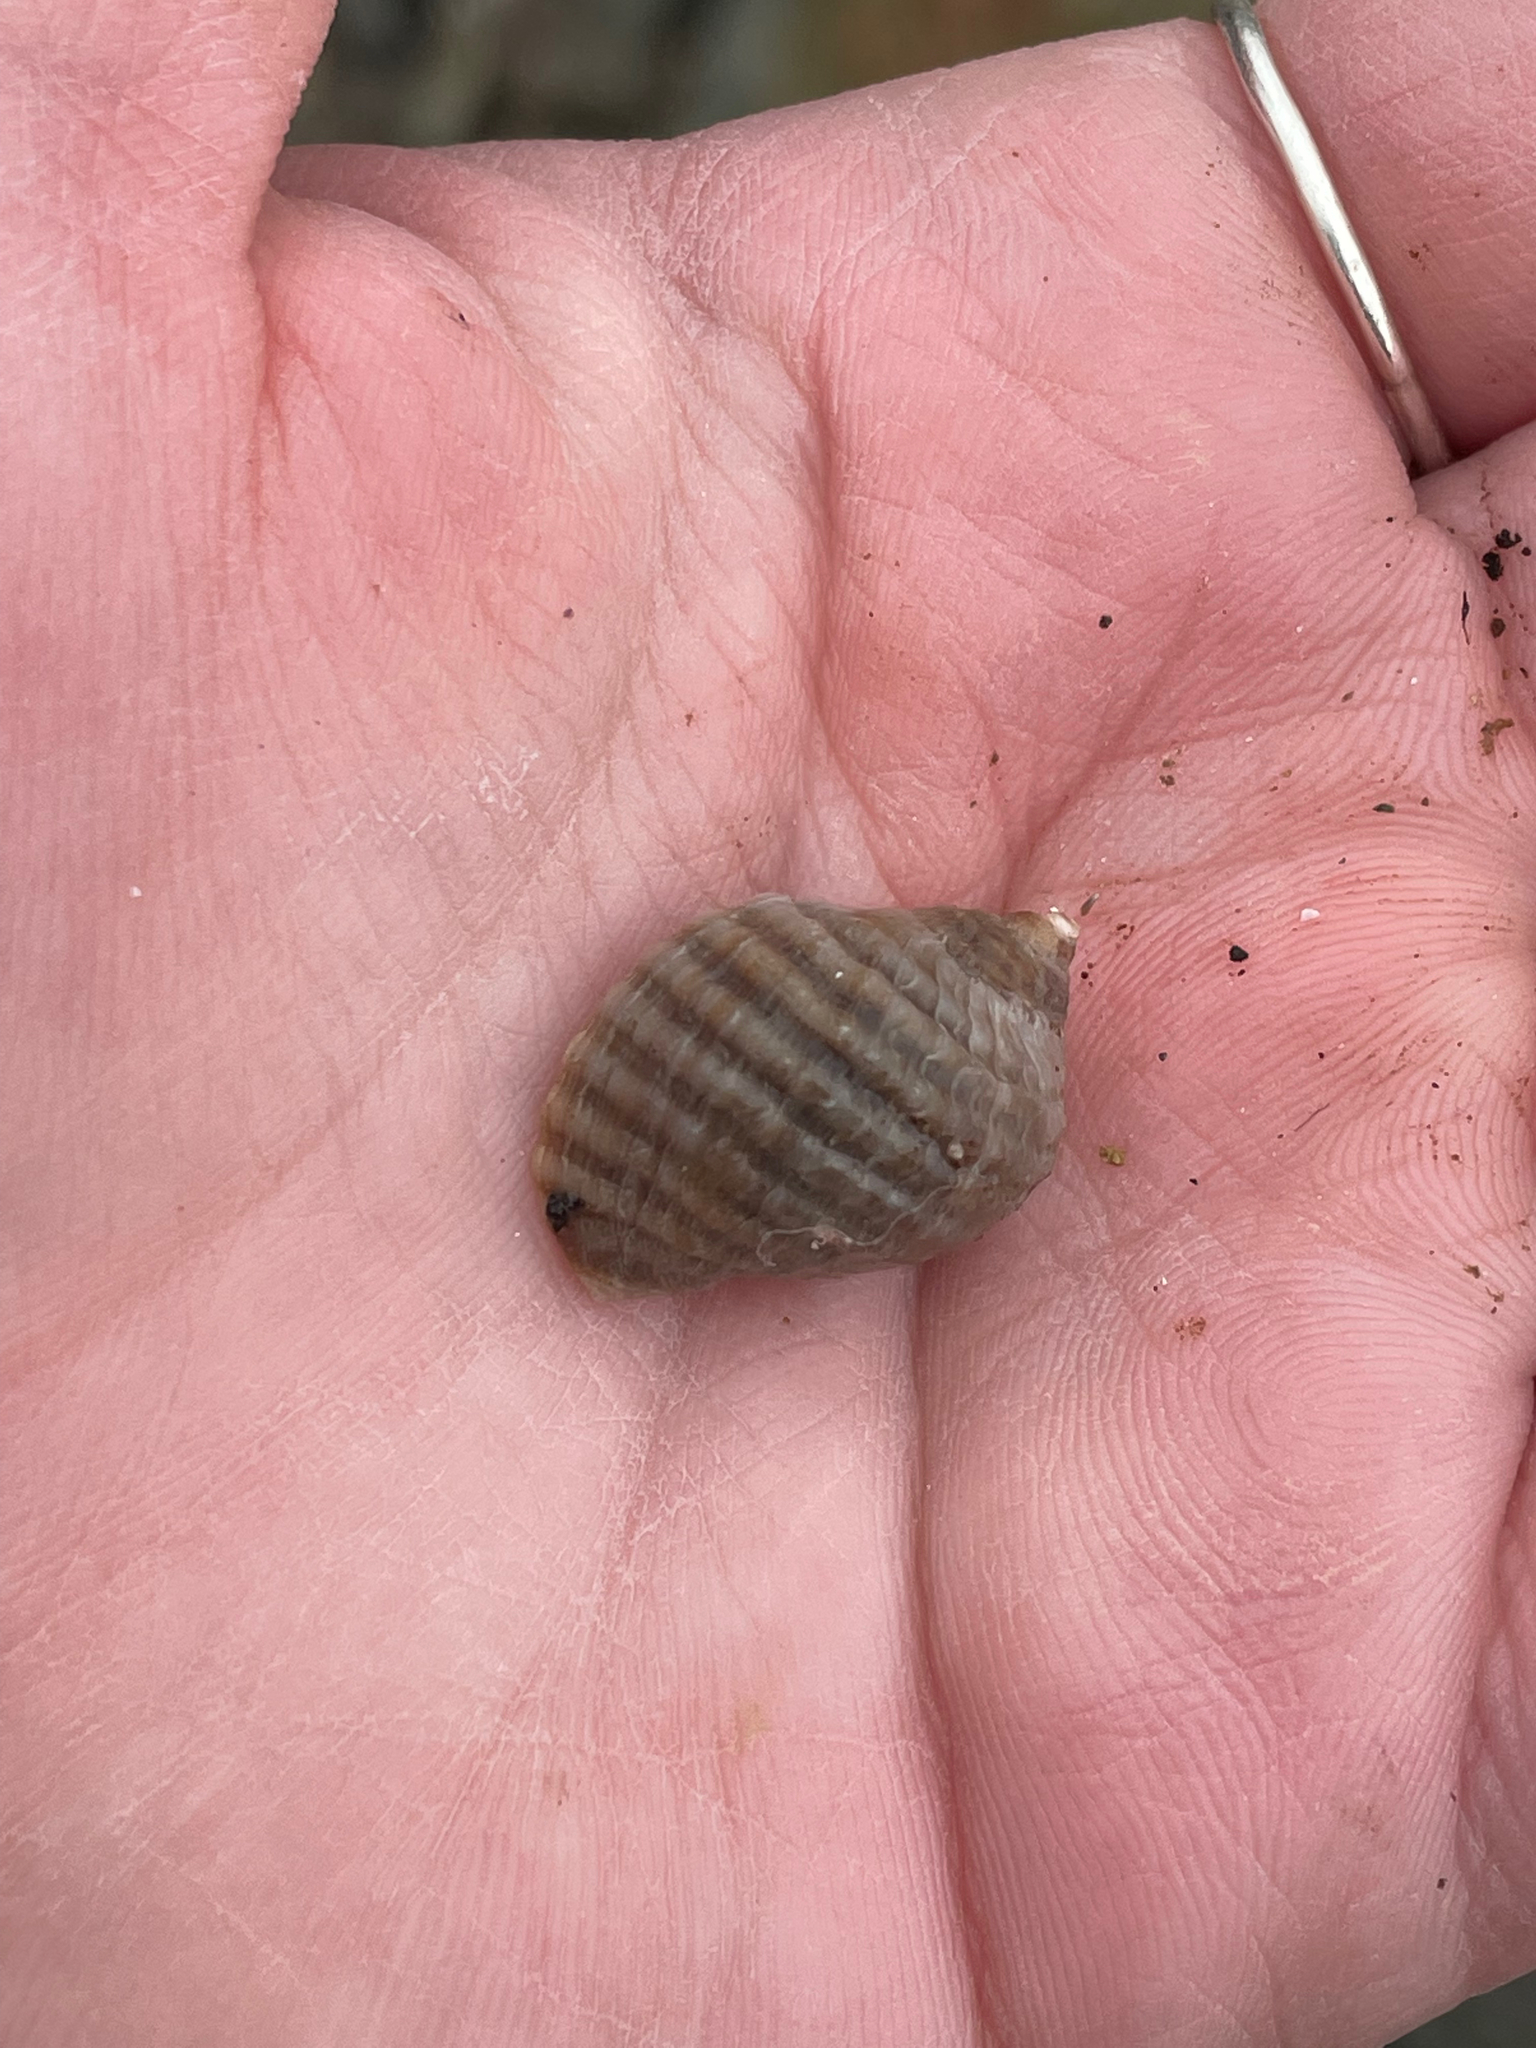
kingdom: Animalia
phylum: Mollusca
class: Gastropoda
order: Neogastropoda
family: Muricidae
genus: Nucella
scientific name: Nucella lapillus
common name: Dog whelk
